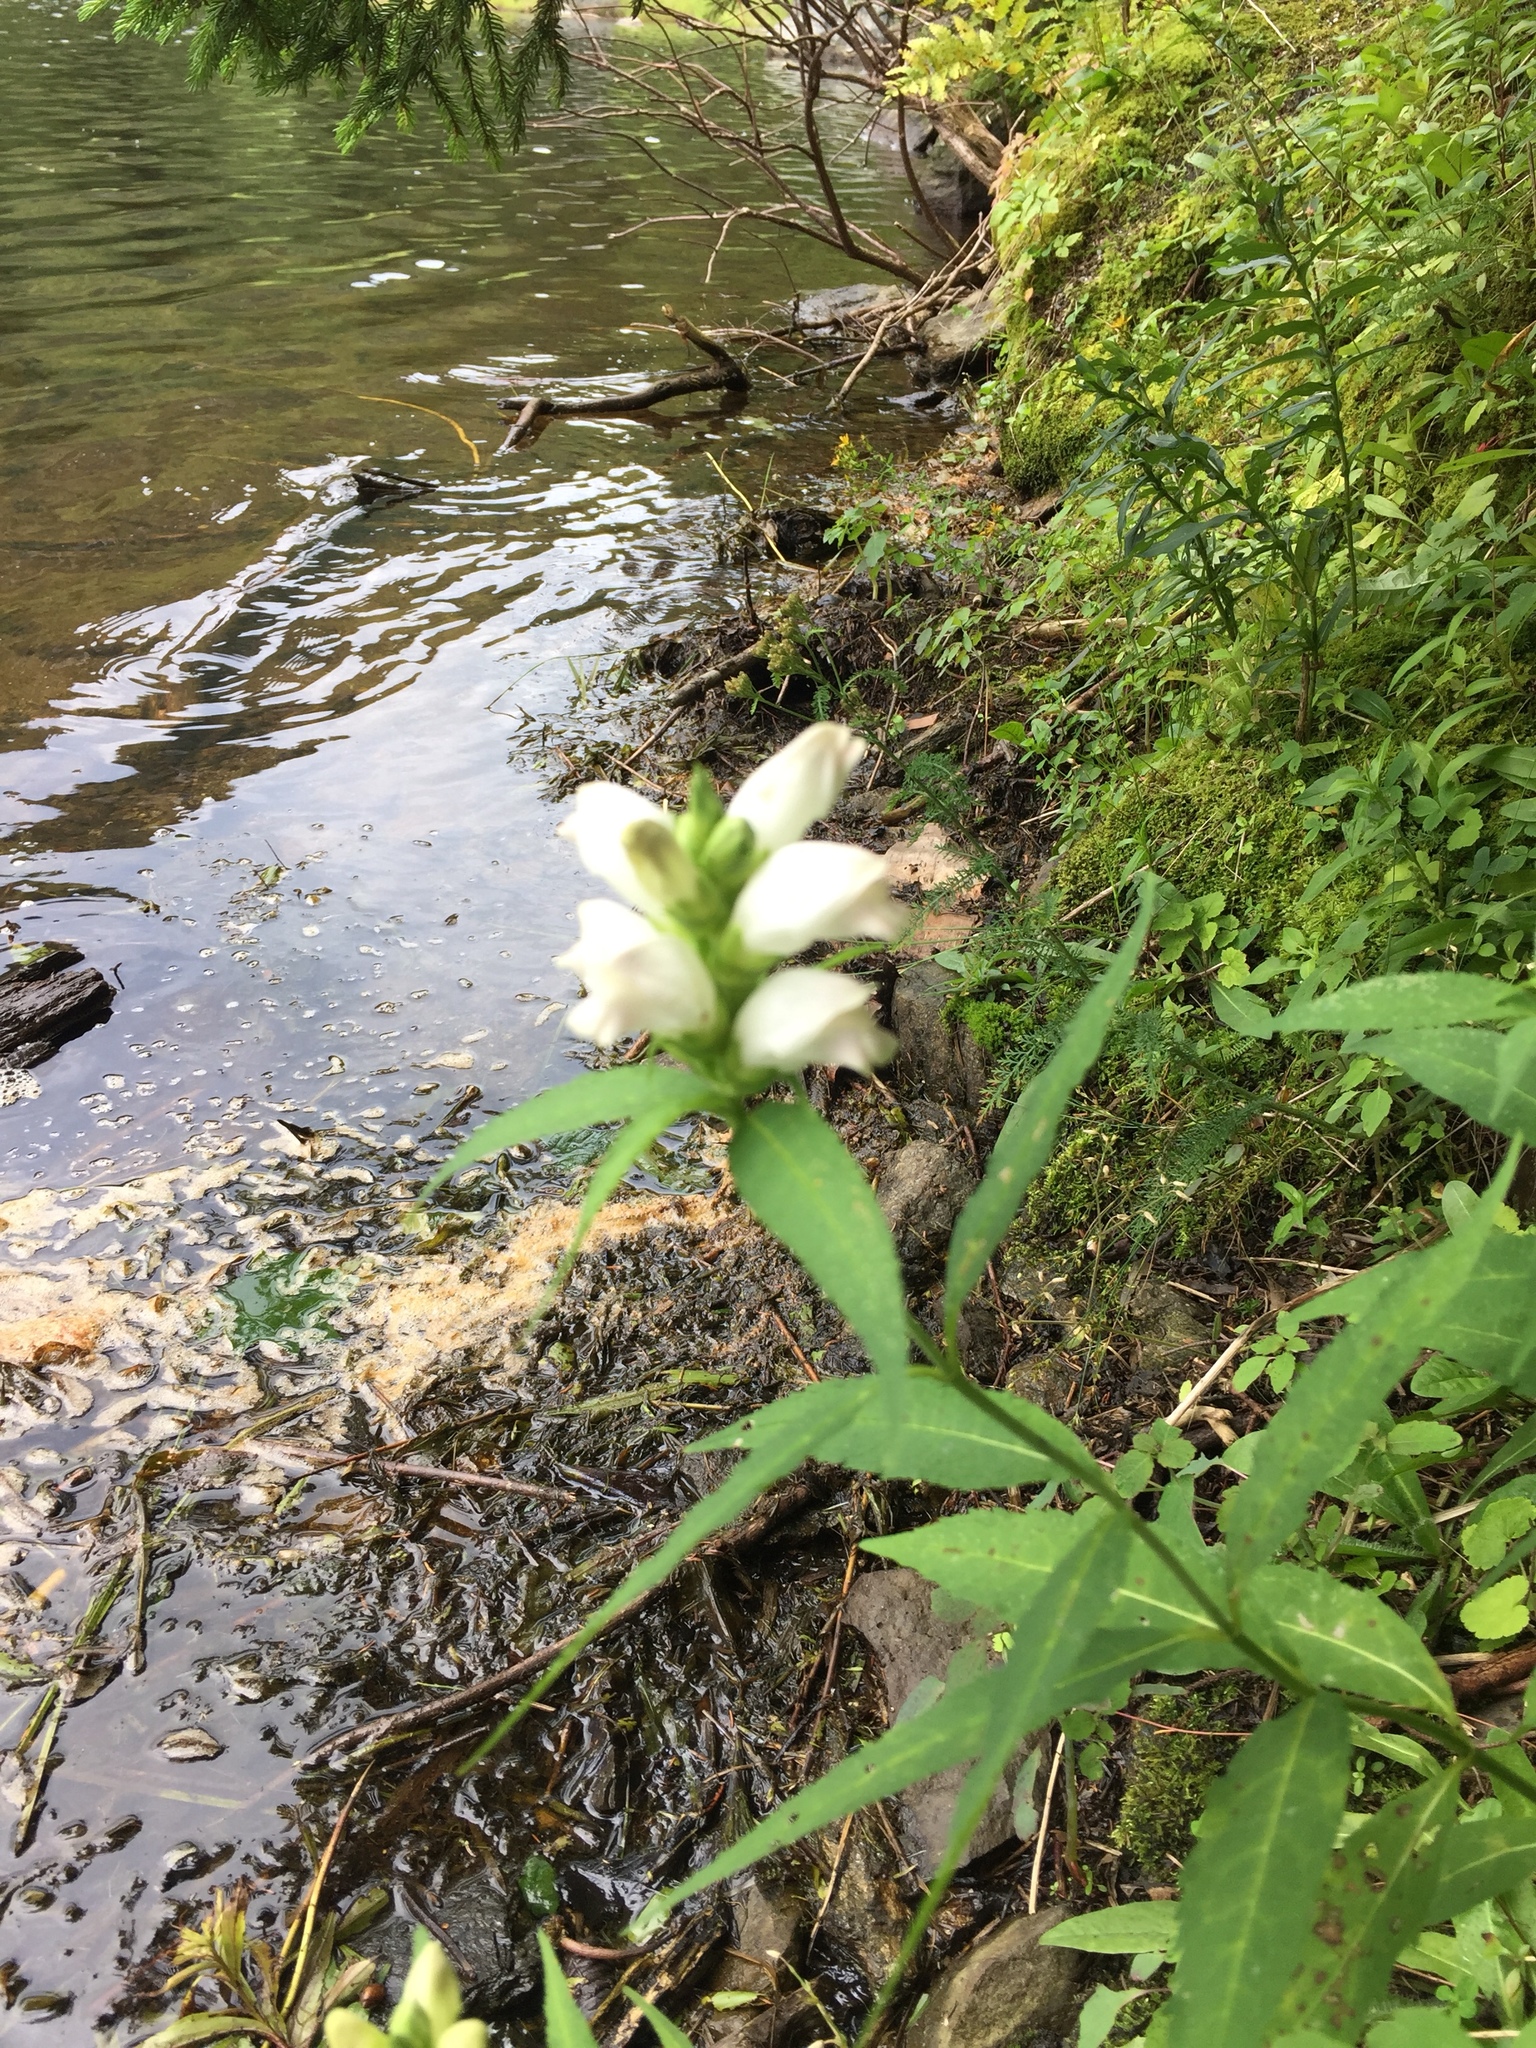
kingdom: Plantae
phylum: Tracheophyta
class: Magnoliopsida
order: Lamiales
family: Plantaginaceae
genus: Chelone
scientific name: Chelone glabra
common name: Snakehead
